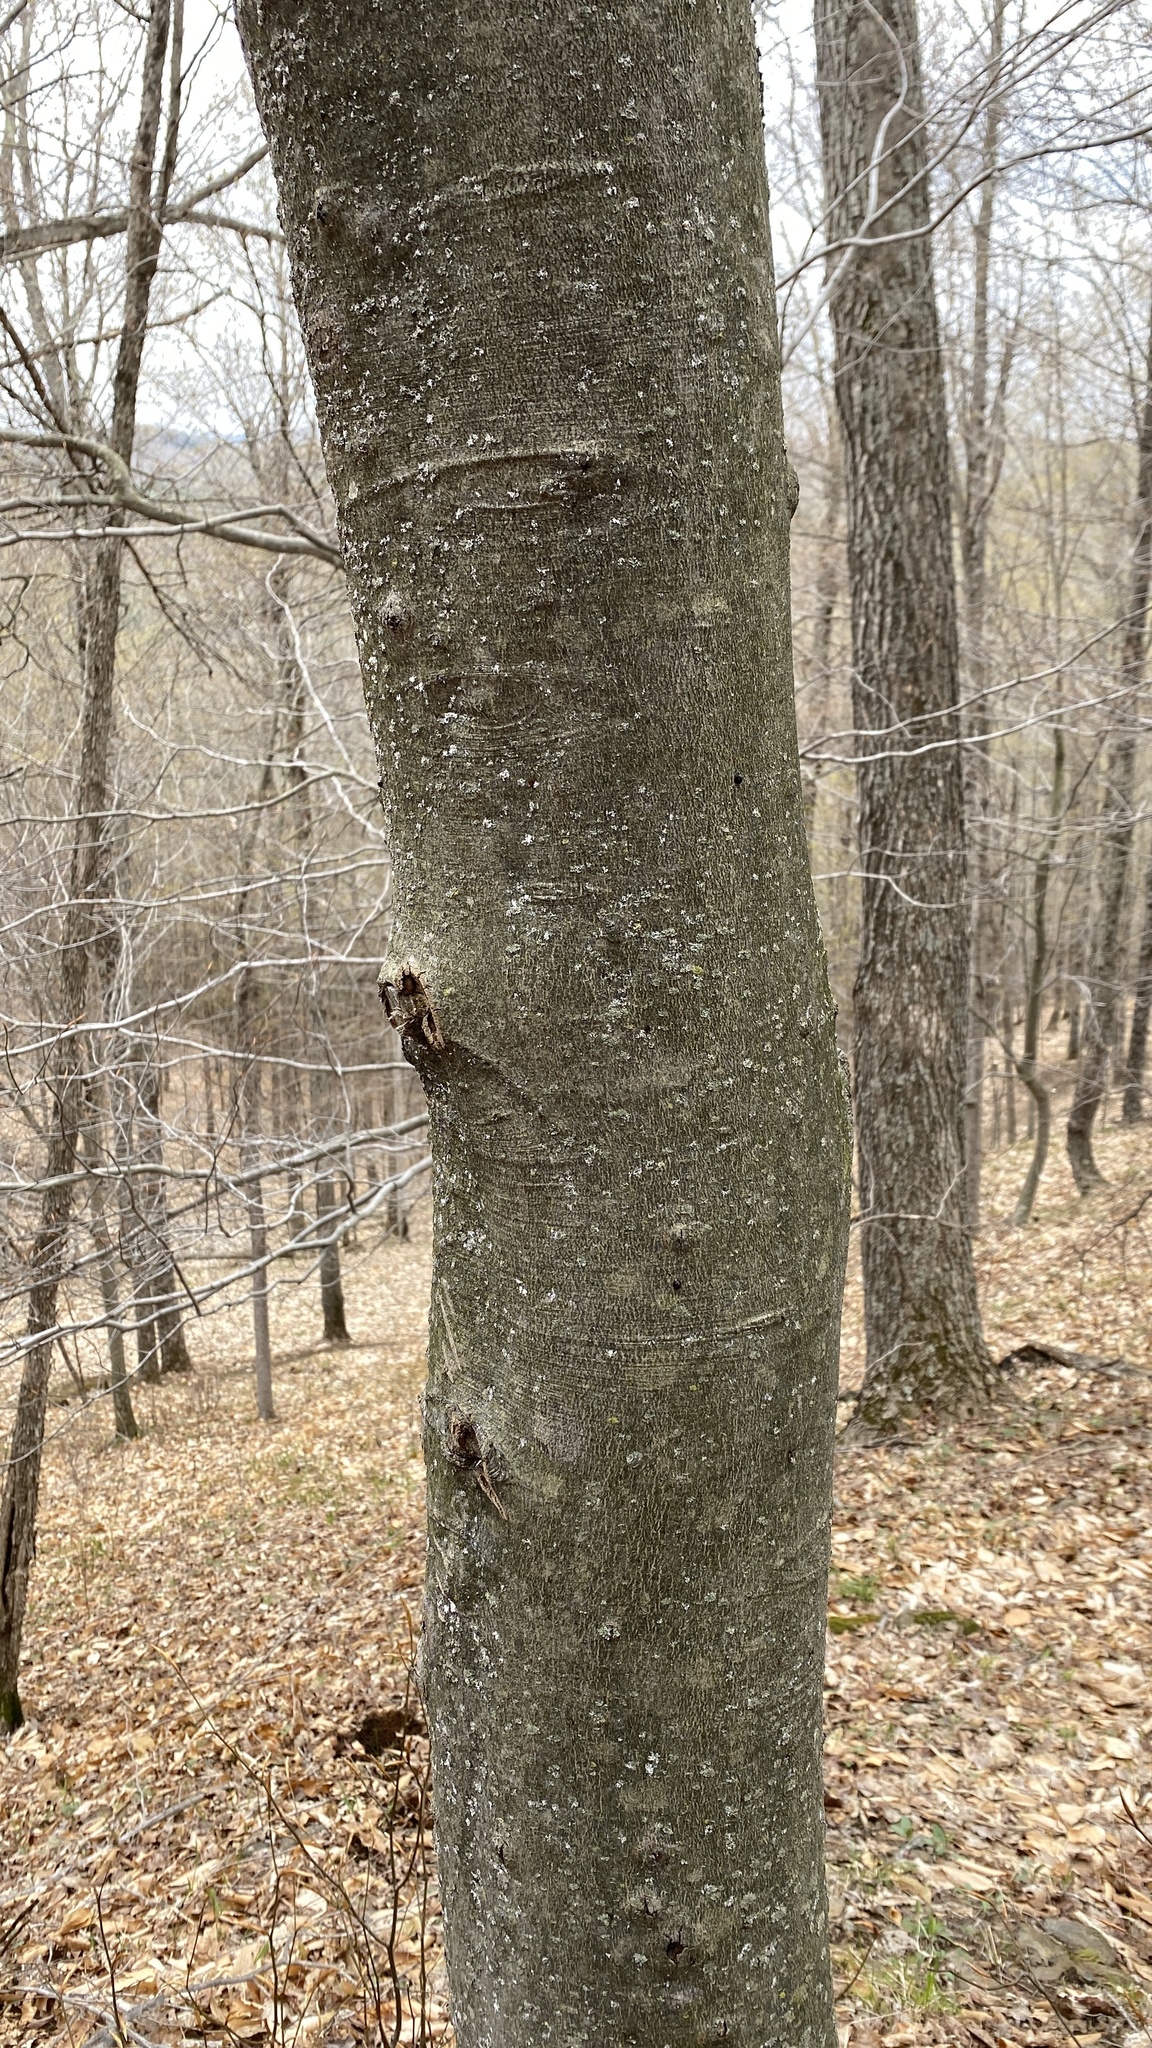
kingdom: Animalia
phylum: Arthropoda
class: Insecta
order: Hemiptera
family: Eriococcidae
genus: Cryptococcus
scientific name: Cryptococcus fagisuga
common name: Beech scale
